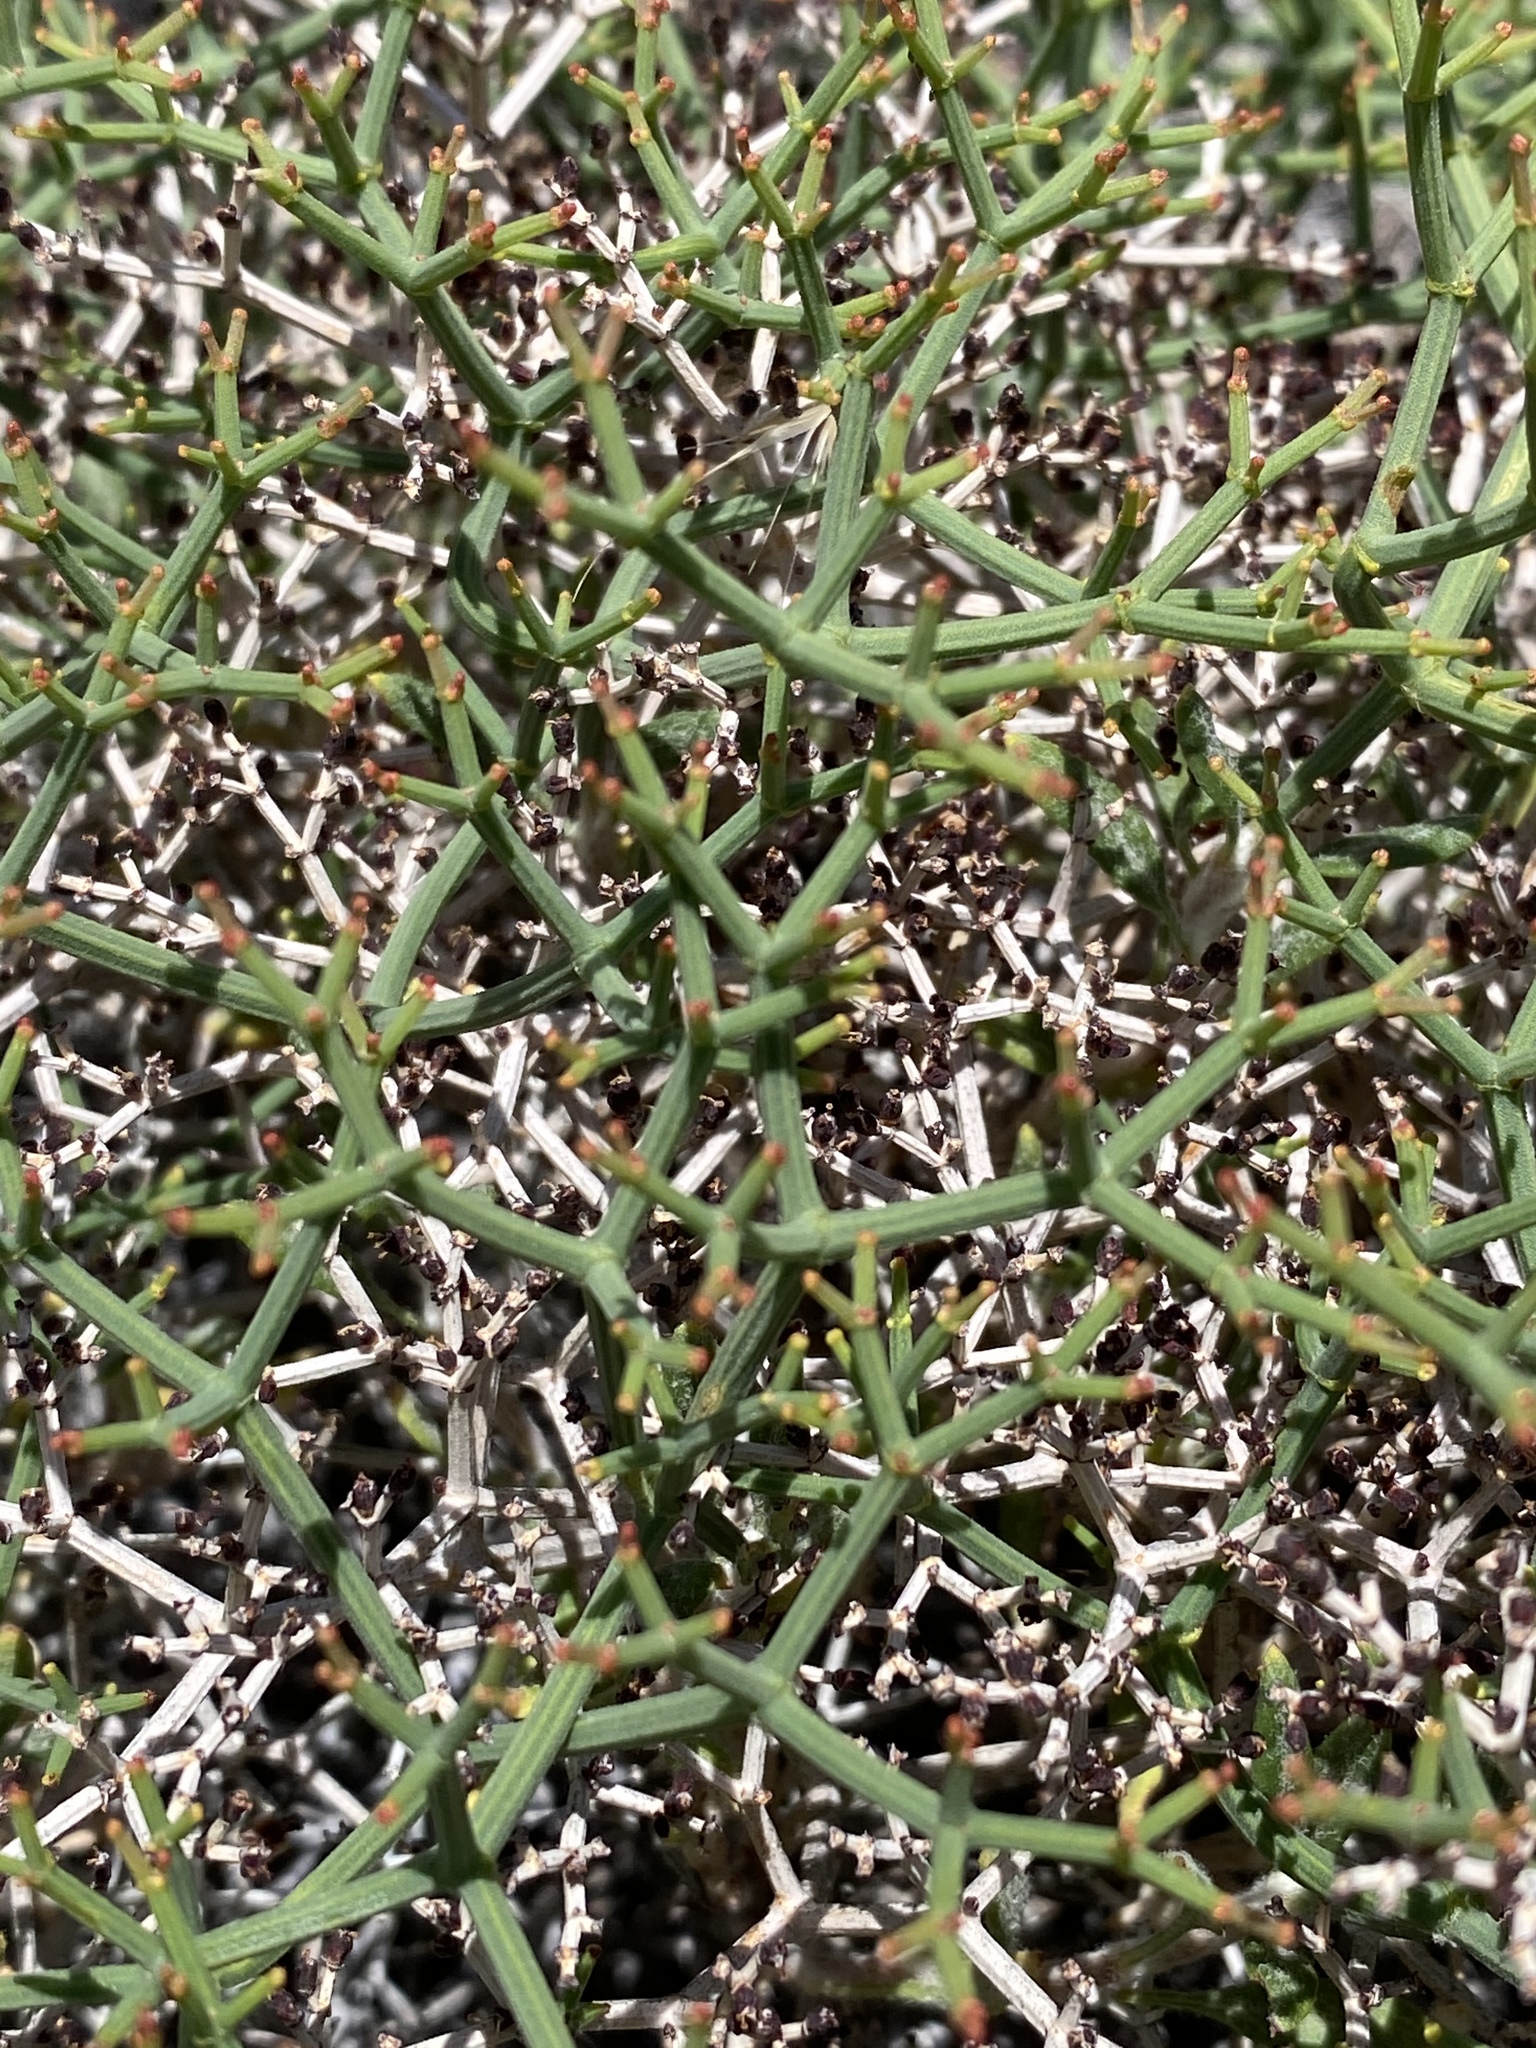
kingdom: Plantae
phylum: Tracheophyta
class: Magnoliopsida
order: Caryophyllales
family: Polygonaceae
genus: Eriogonum
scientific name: Eriogonum heermannii
